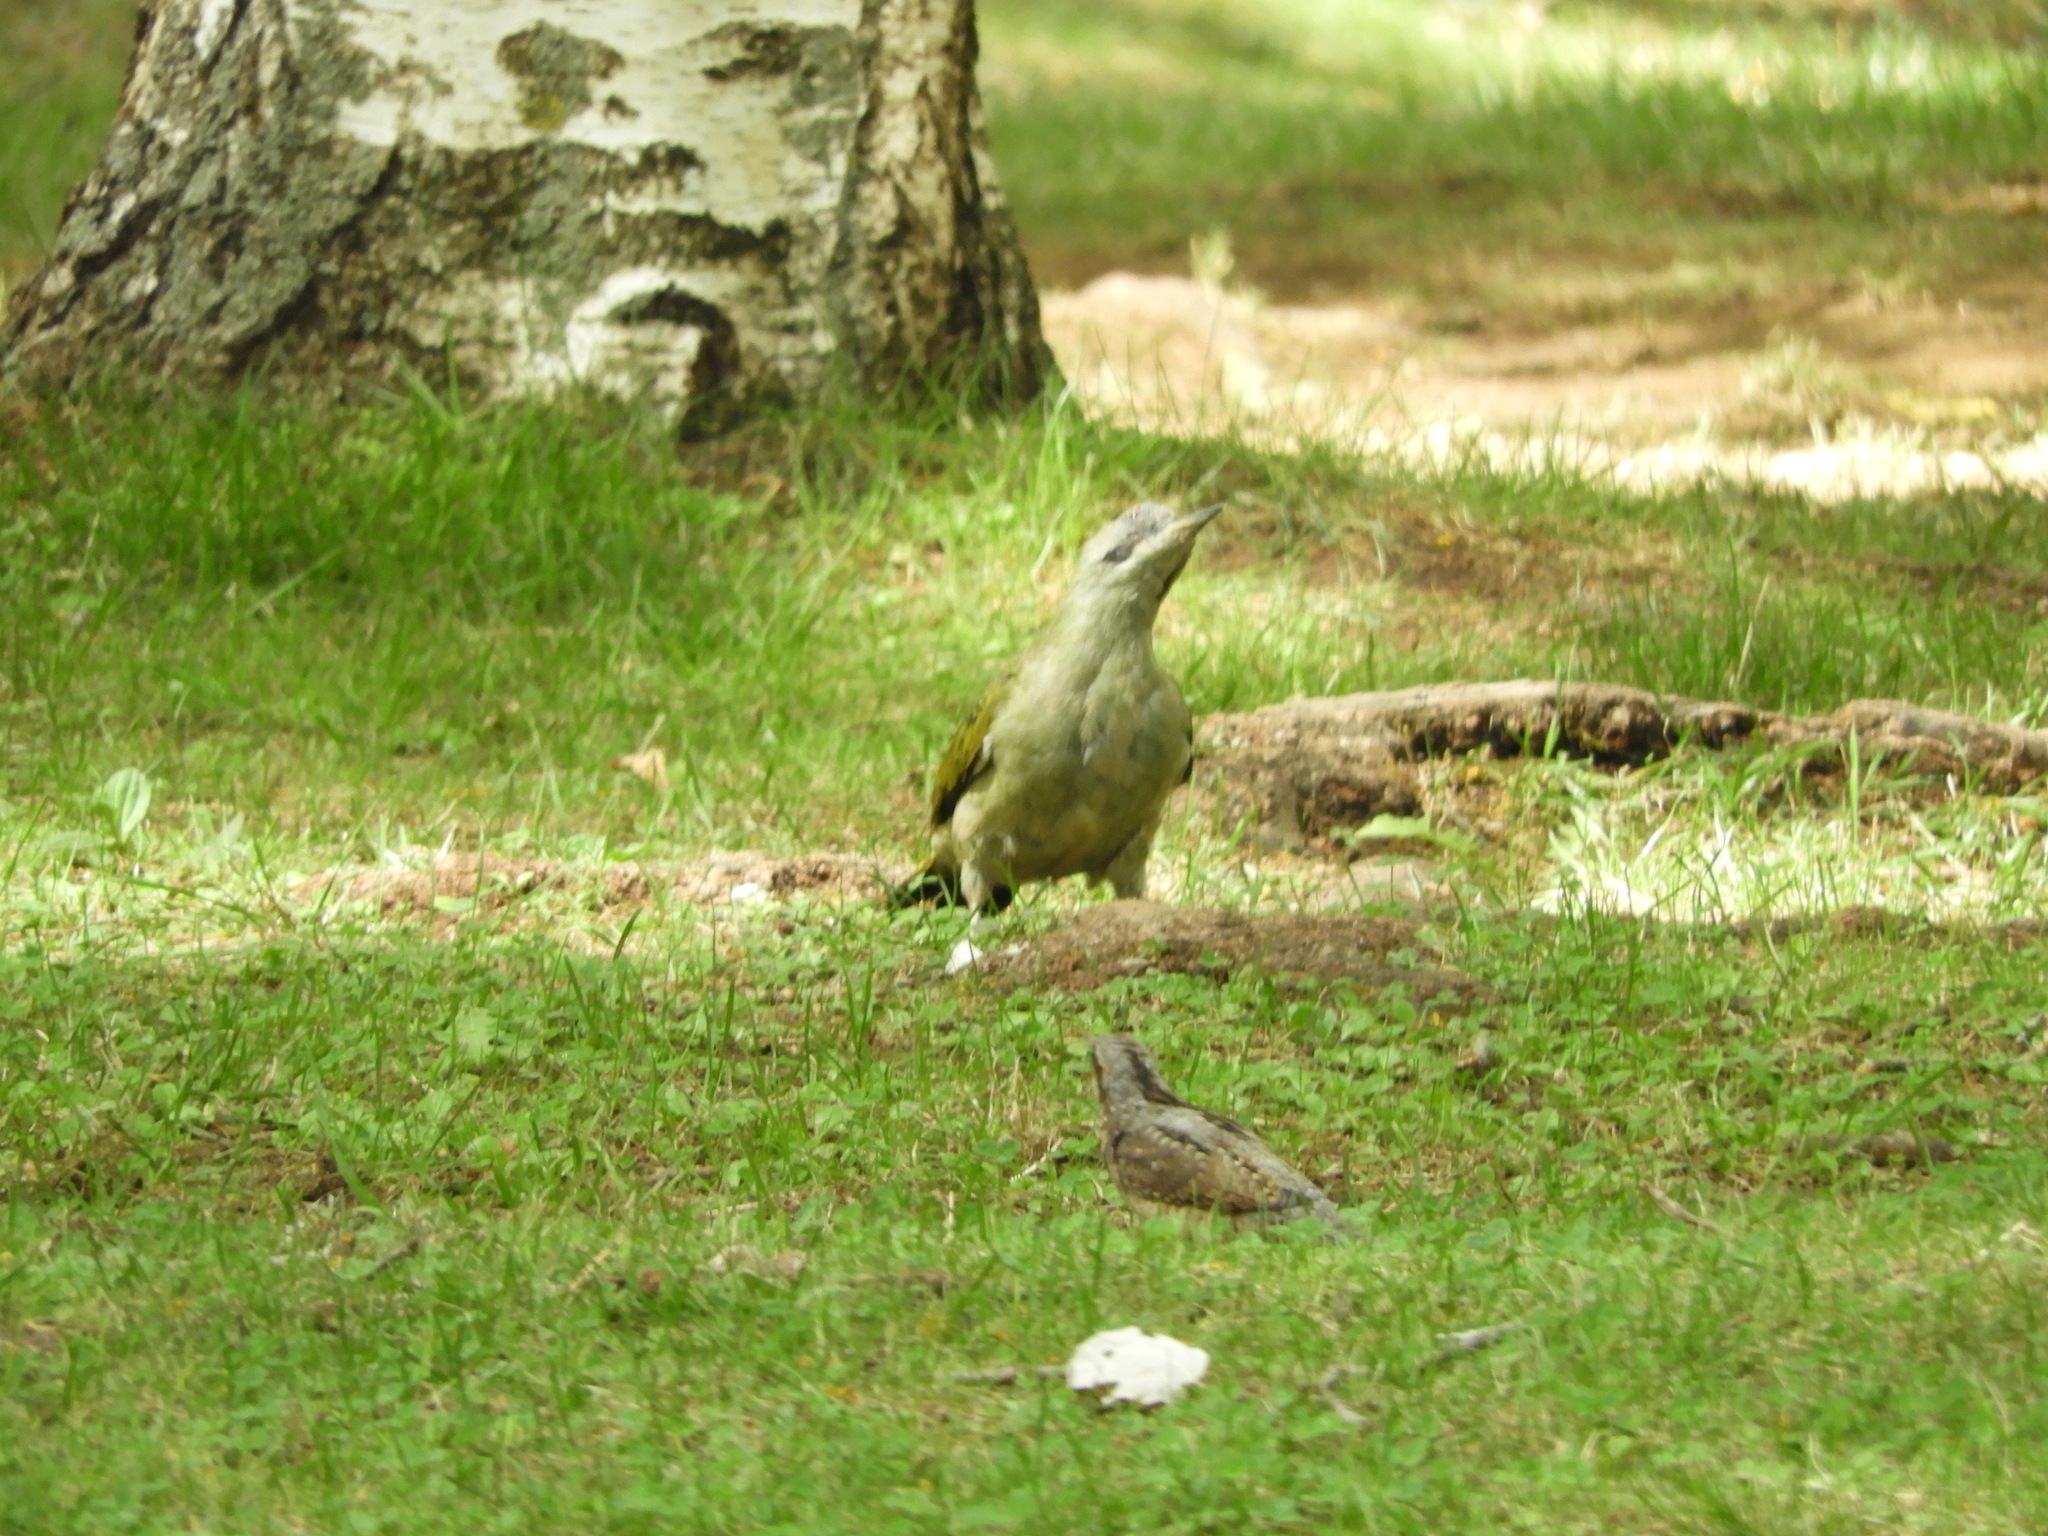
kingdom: Animalia
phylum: Chordata
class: Aves
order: Piciformes
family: Picidae
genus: Jynx
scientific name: Jynx torquilla
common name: Eurasian wryneck
